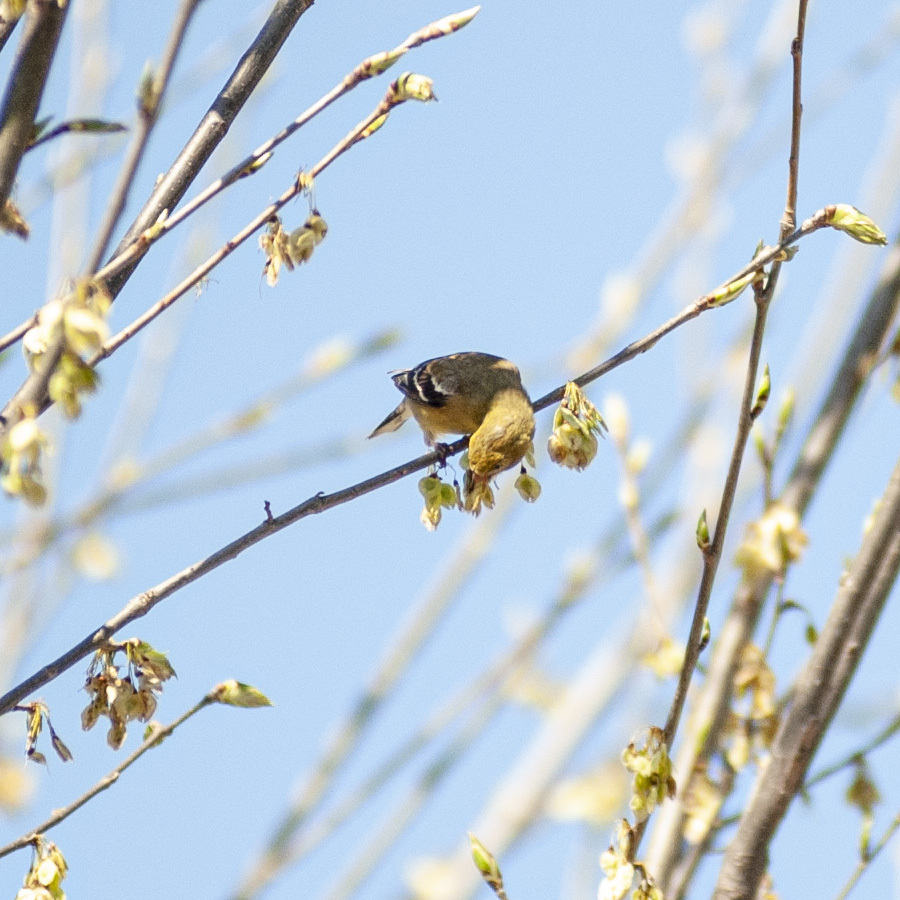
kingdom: Animalia
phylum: Chordata
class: Aves
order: Passeriformes
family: Fringillidae
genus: Spinus
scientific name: Spinus tristis
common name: American goldfinch
